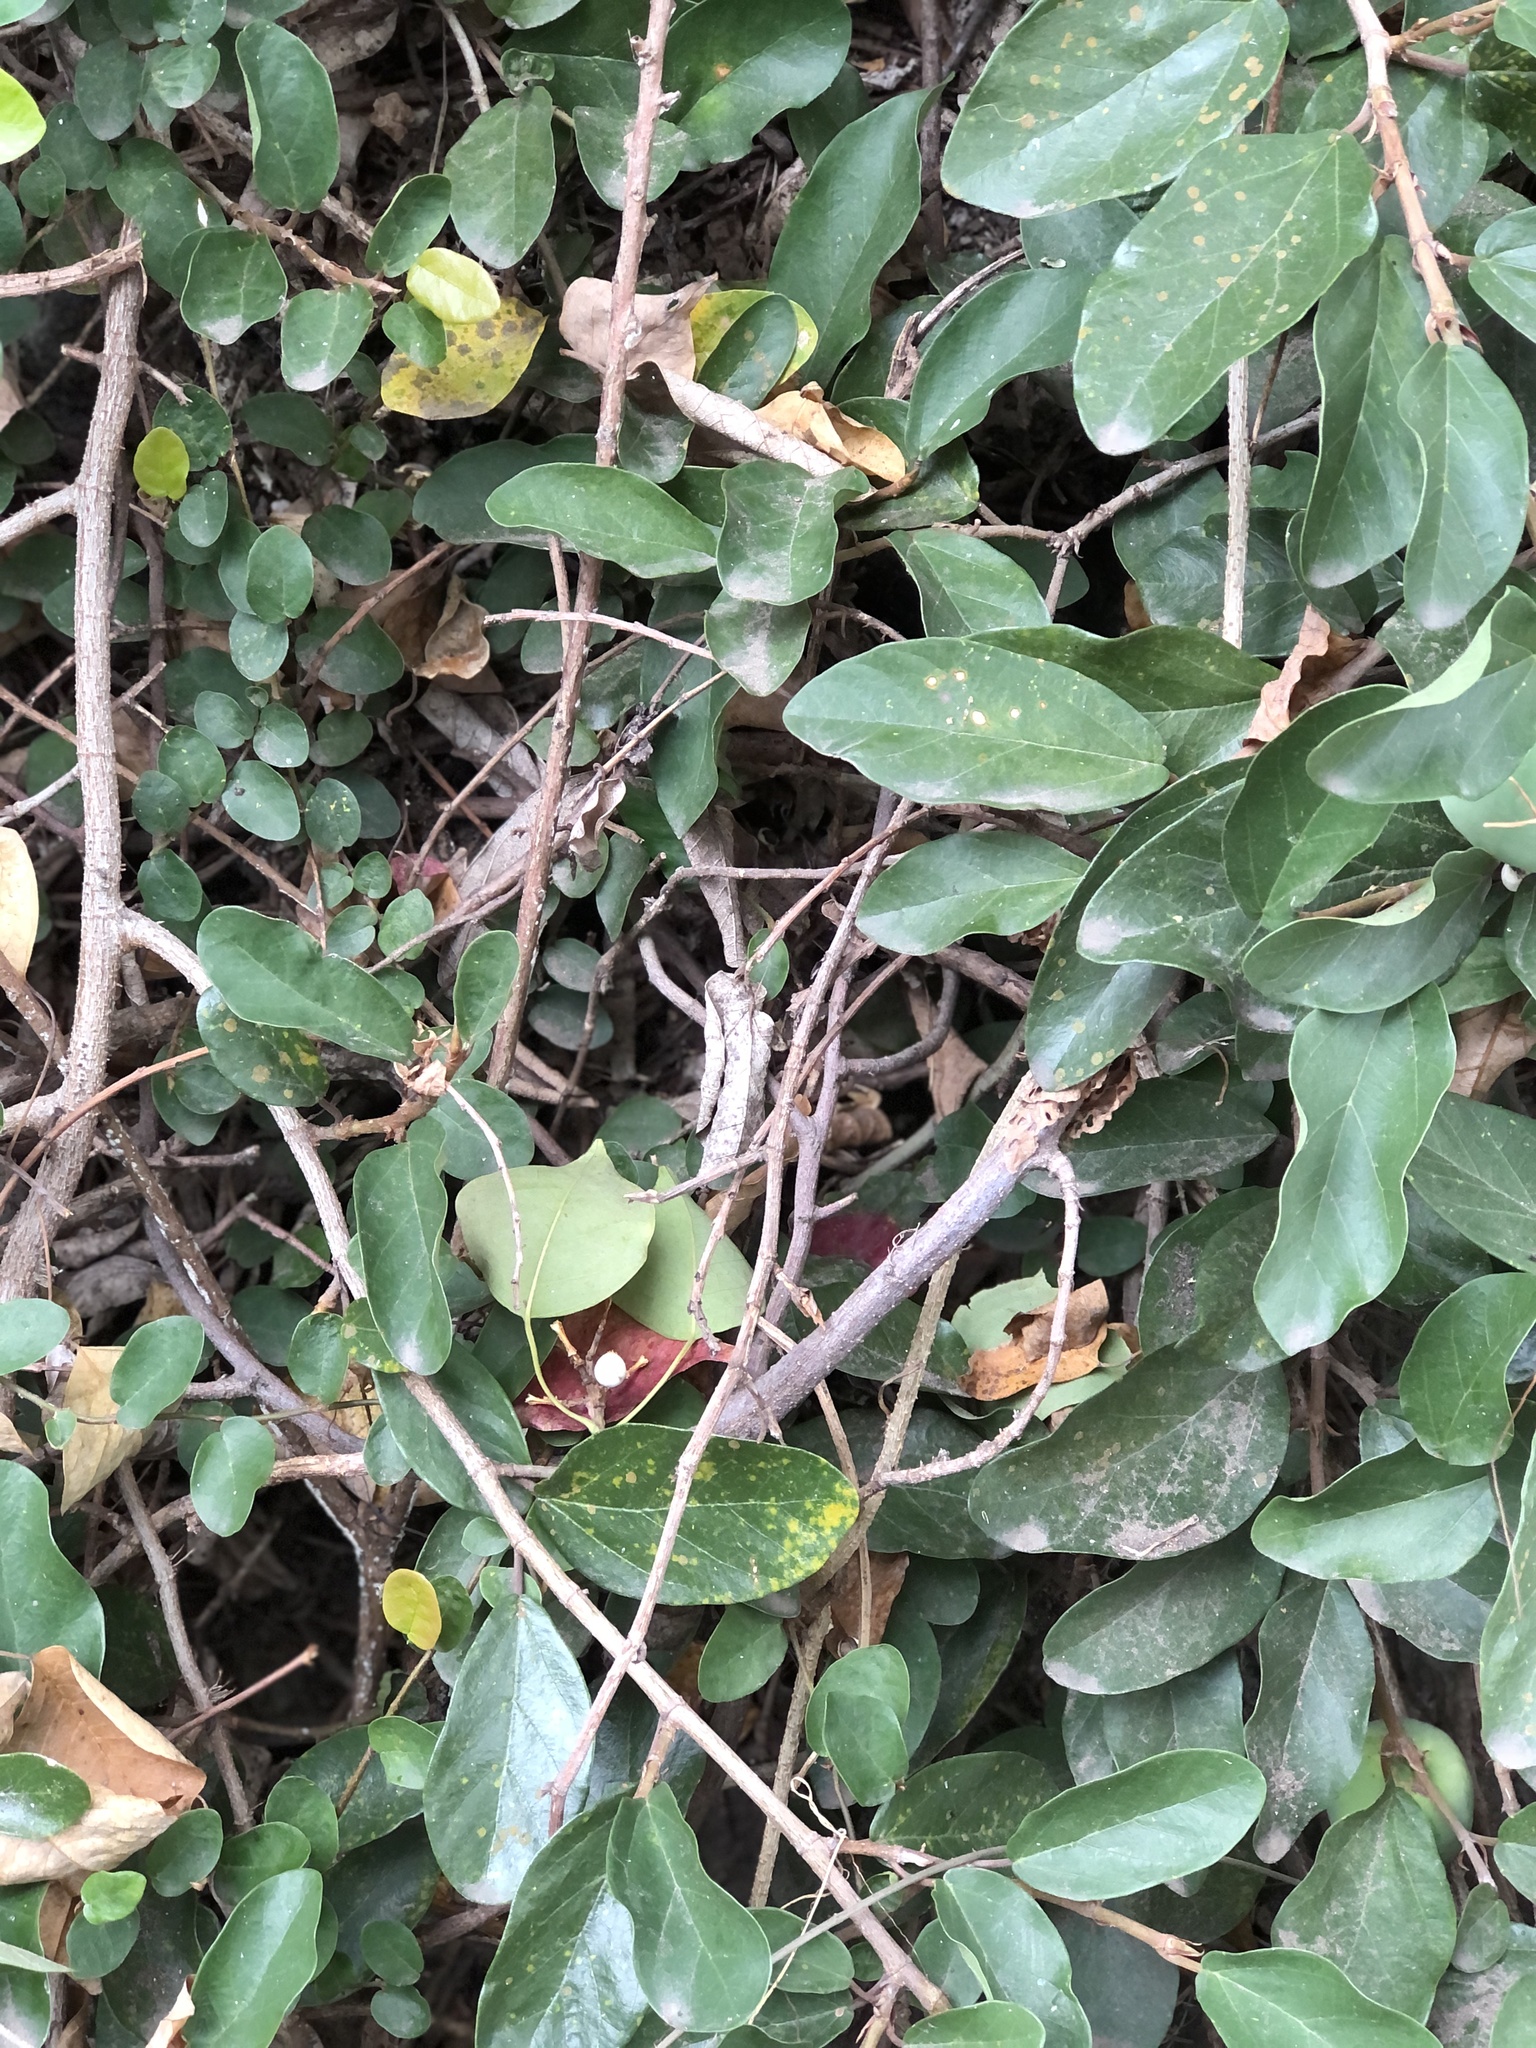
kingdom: Plantae
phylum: Tracheophyta
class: Magnoliopsida
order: Rosales
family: Moraceae
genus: Ficus
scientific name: Ficus pumila
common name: Climbingfig
